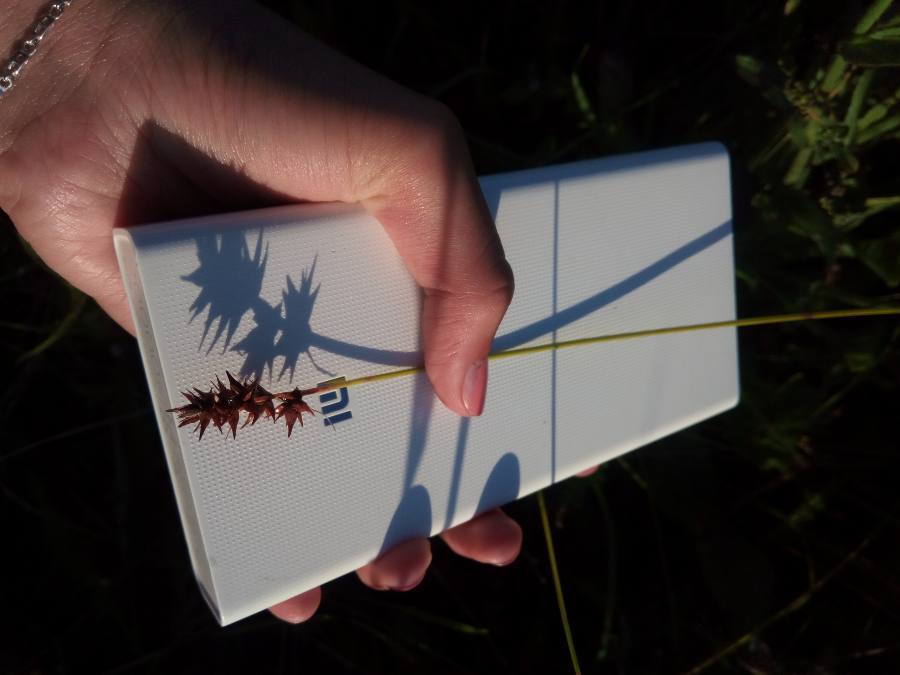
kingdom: Plantae
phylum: Tracheophyta
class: Liliopsida
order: Poales
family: Cyperaceae
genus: Carex
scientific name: Carex spicata
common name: Spiked sedge
